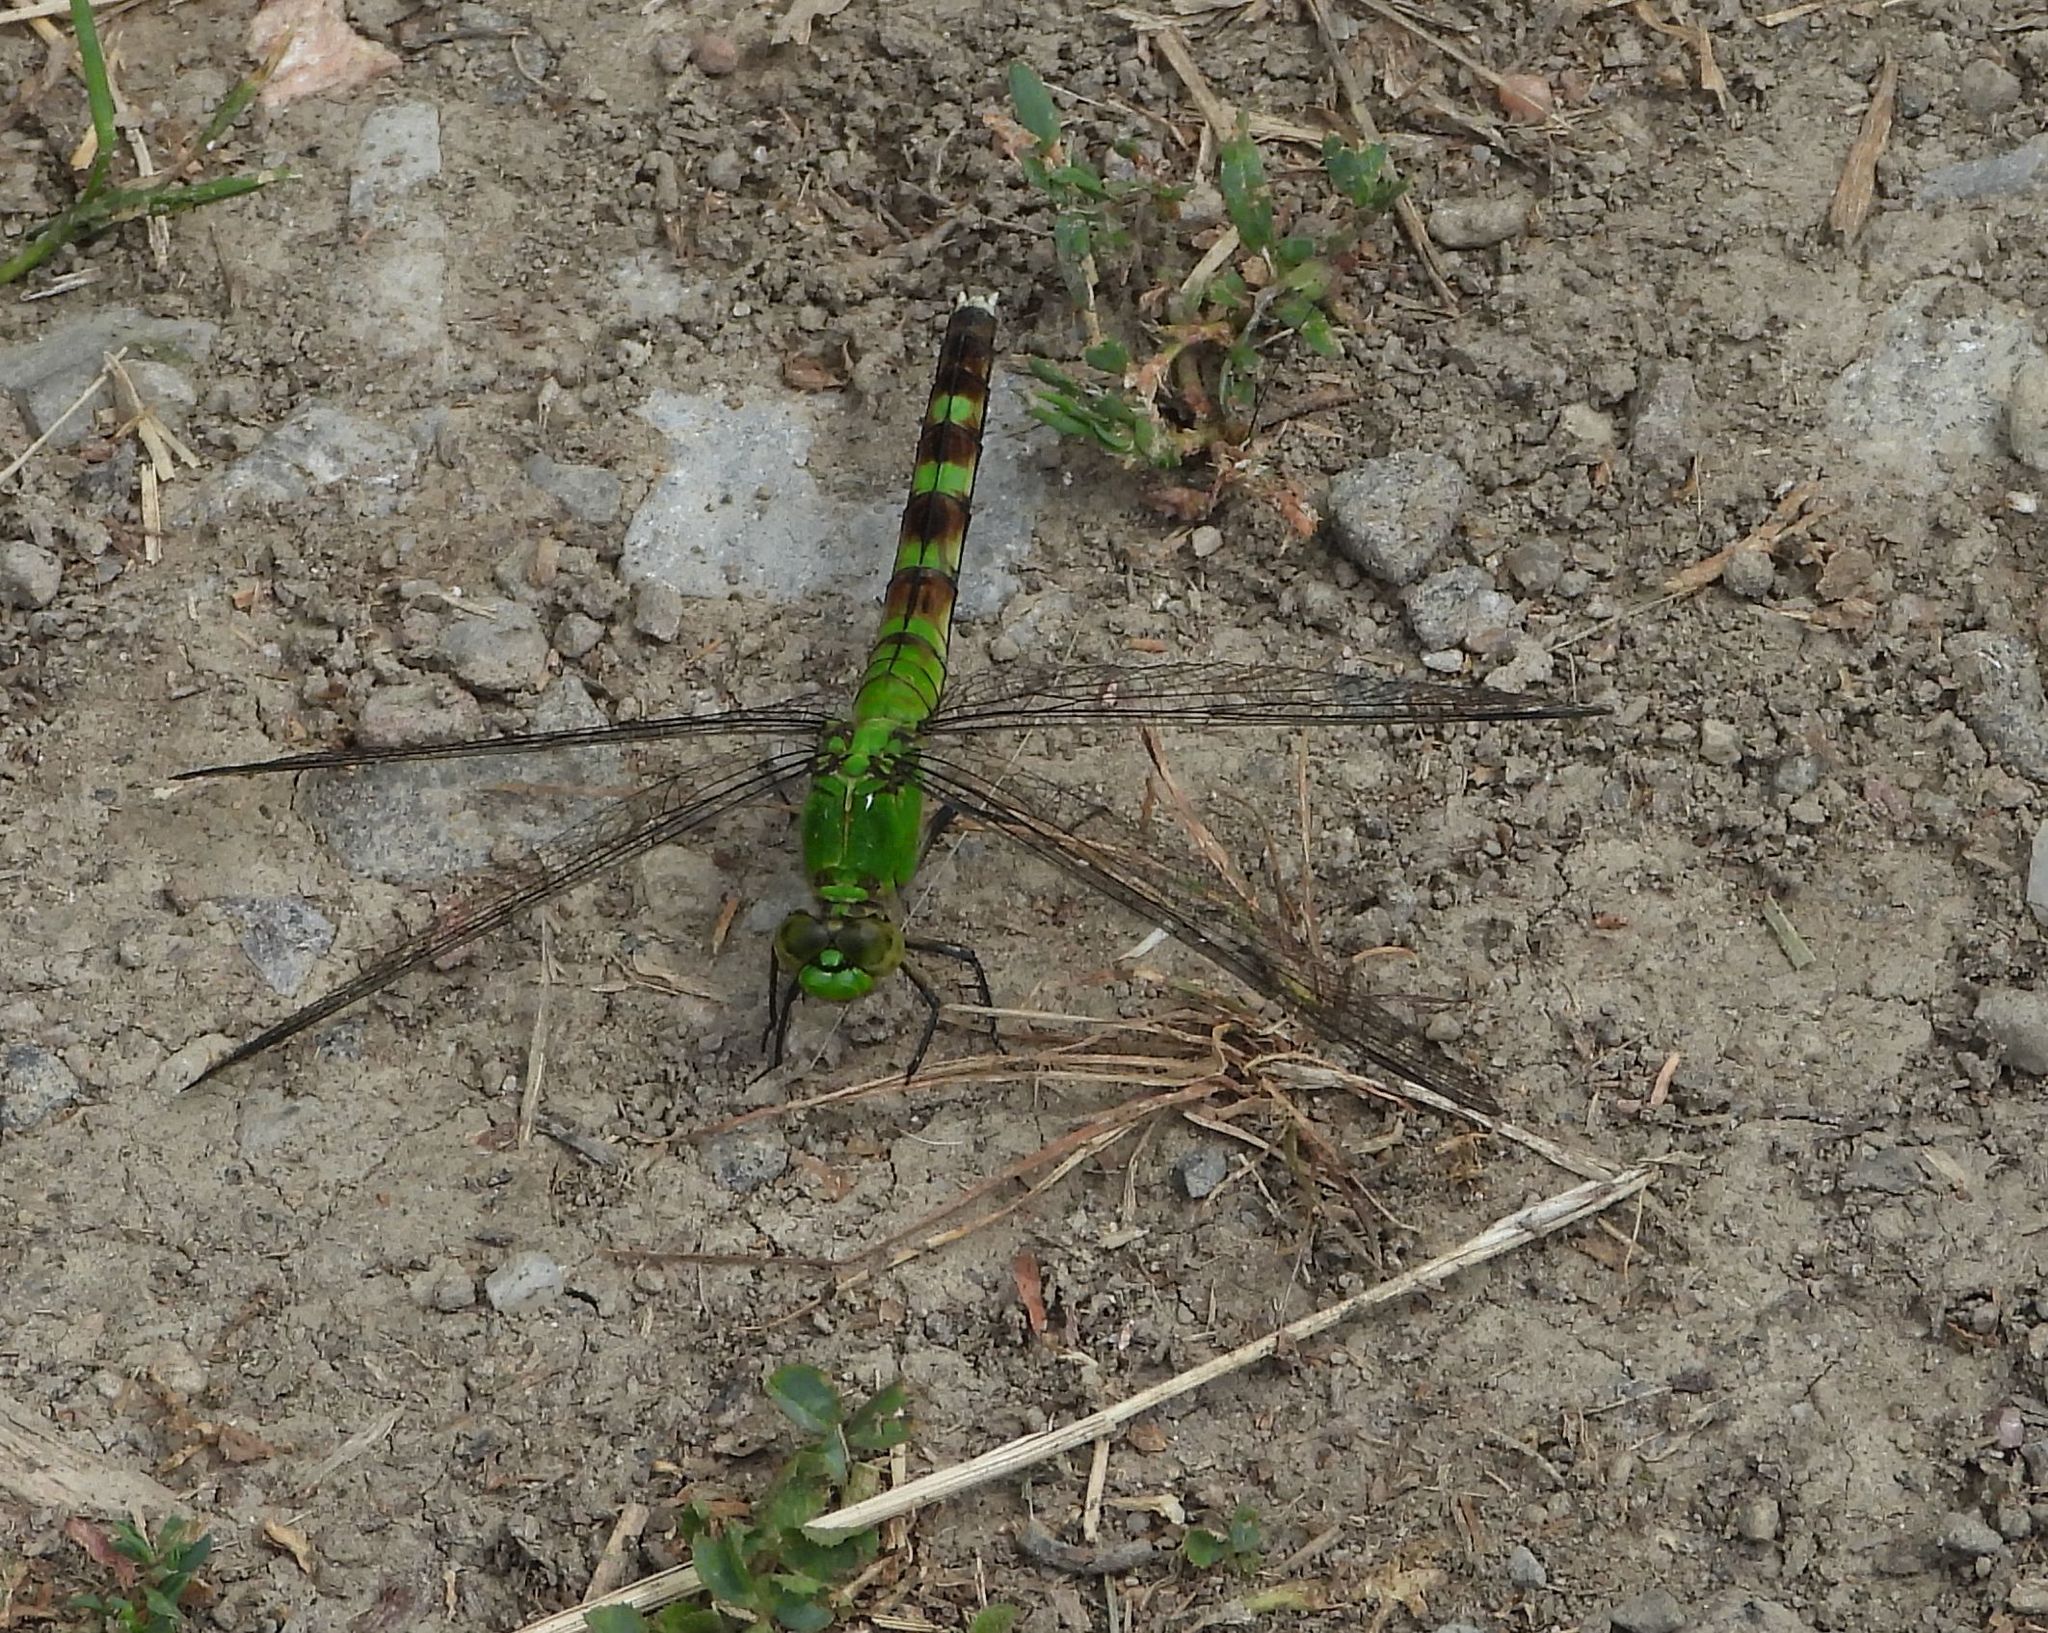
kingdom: Animalia
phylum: Arthropoda
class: Insecta
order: Odonata
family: Libellulidae
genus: Erythemis
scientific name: Erythemis simplicicollis
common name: Eastern pondhawk
